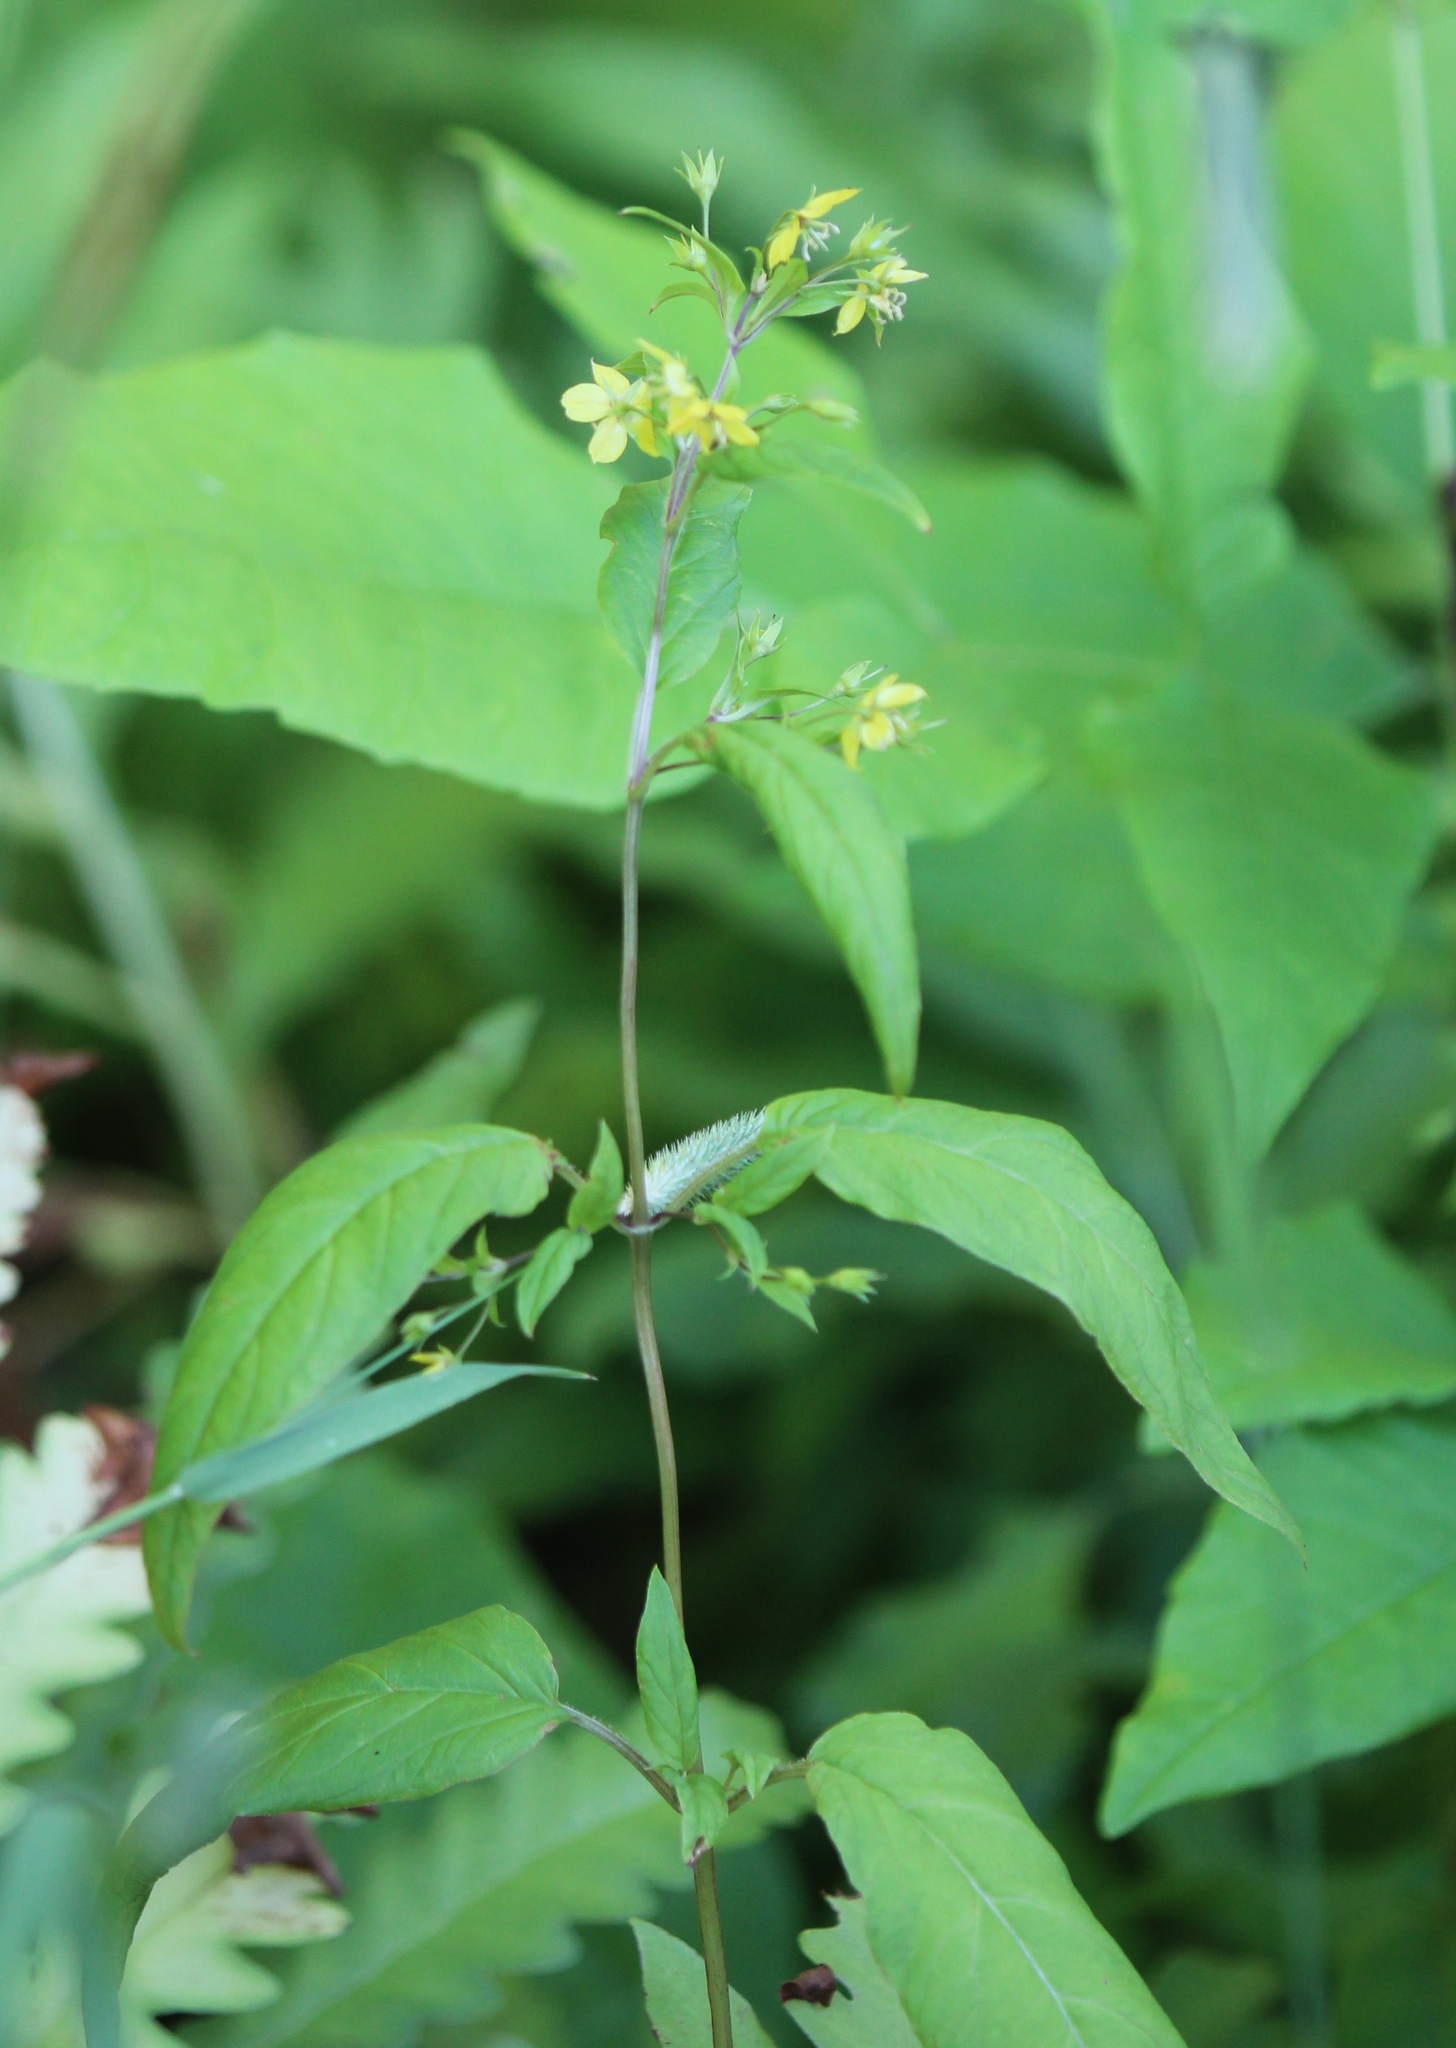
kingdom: Plantae
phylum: Tracheophyta
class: Magnoliopsida
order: Ericales
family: Primulaceae
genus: Lysimachia
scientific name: Lysimachia ciliata
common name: Fringed loosestrife
